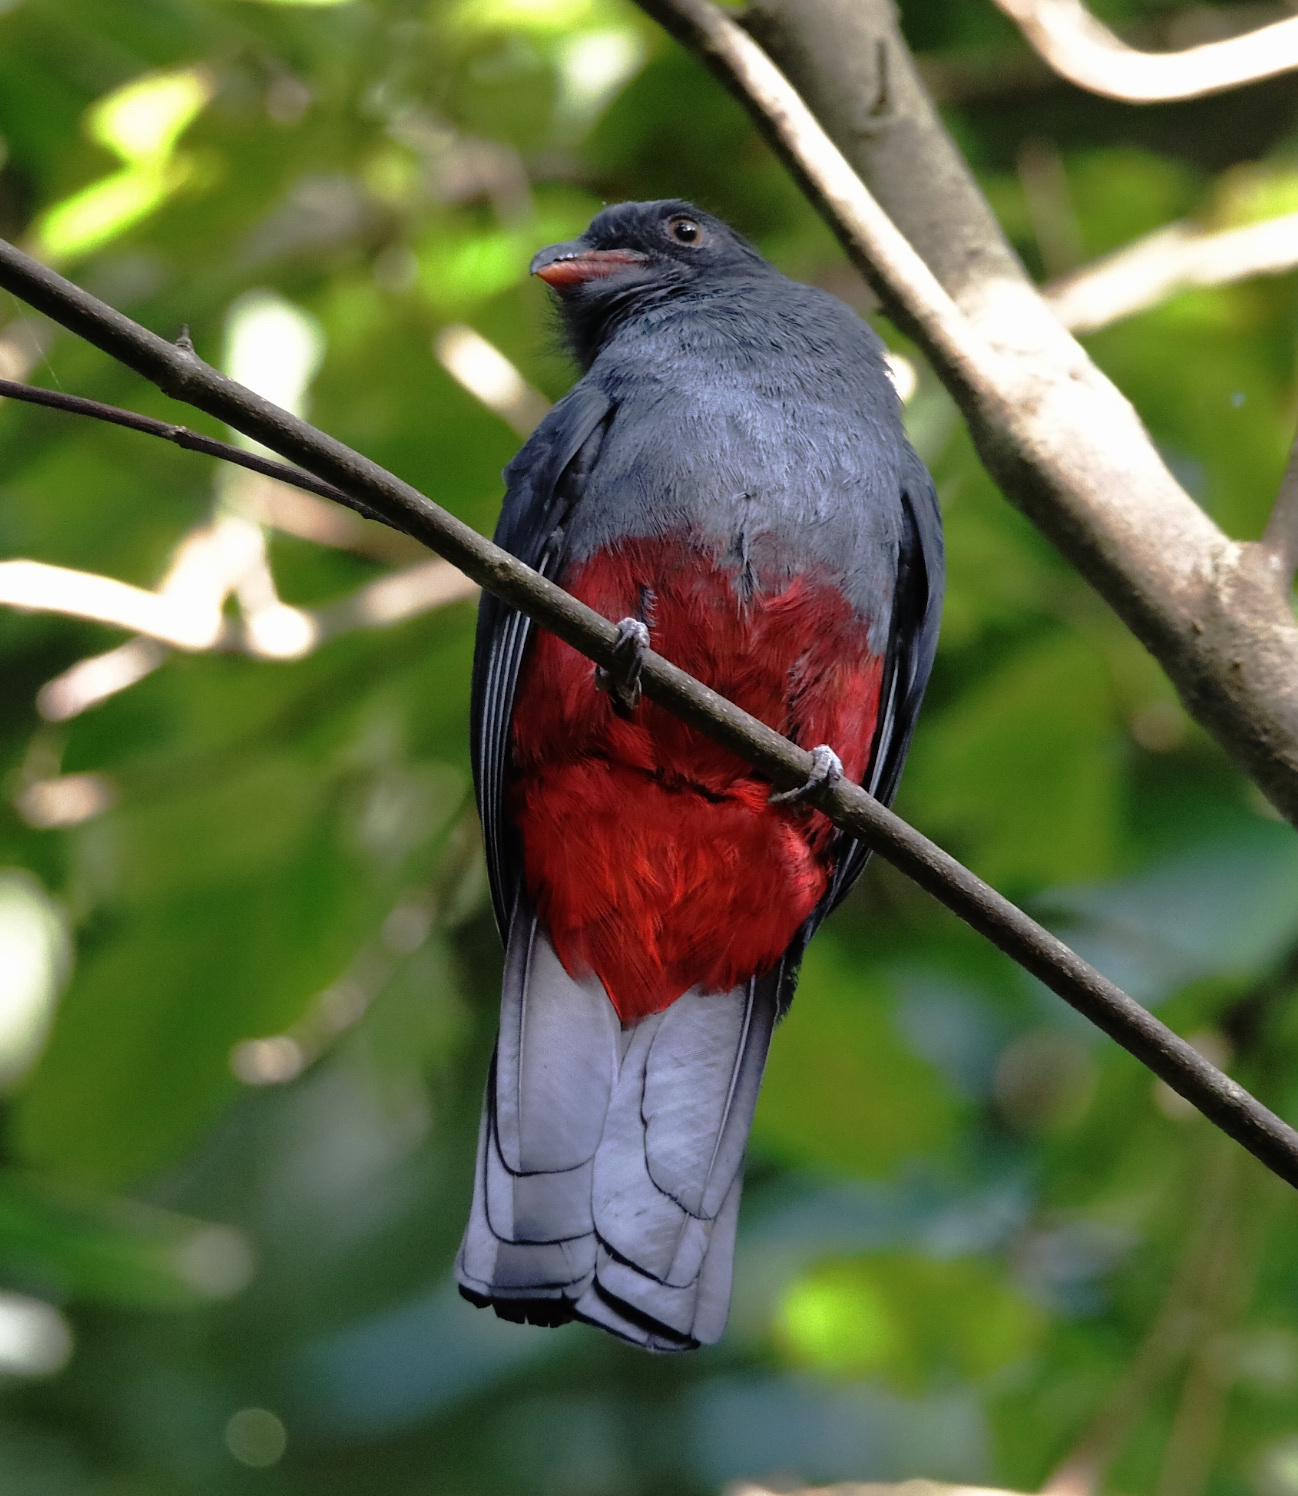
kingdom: Animalia
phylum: Chordata
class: Aves
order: Trogoniformes
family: Trogonidae
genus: Trogon
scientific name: Trogon massena
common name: Slaty-tailed trogon
